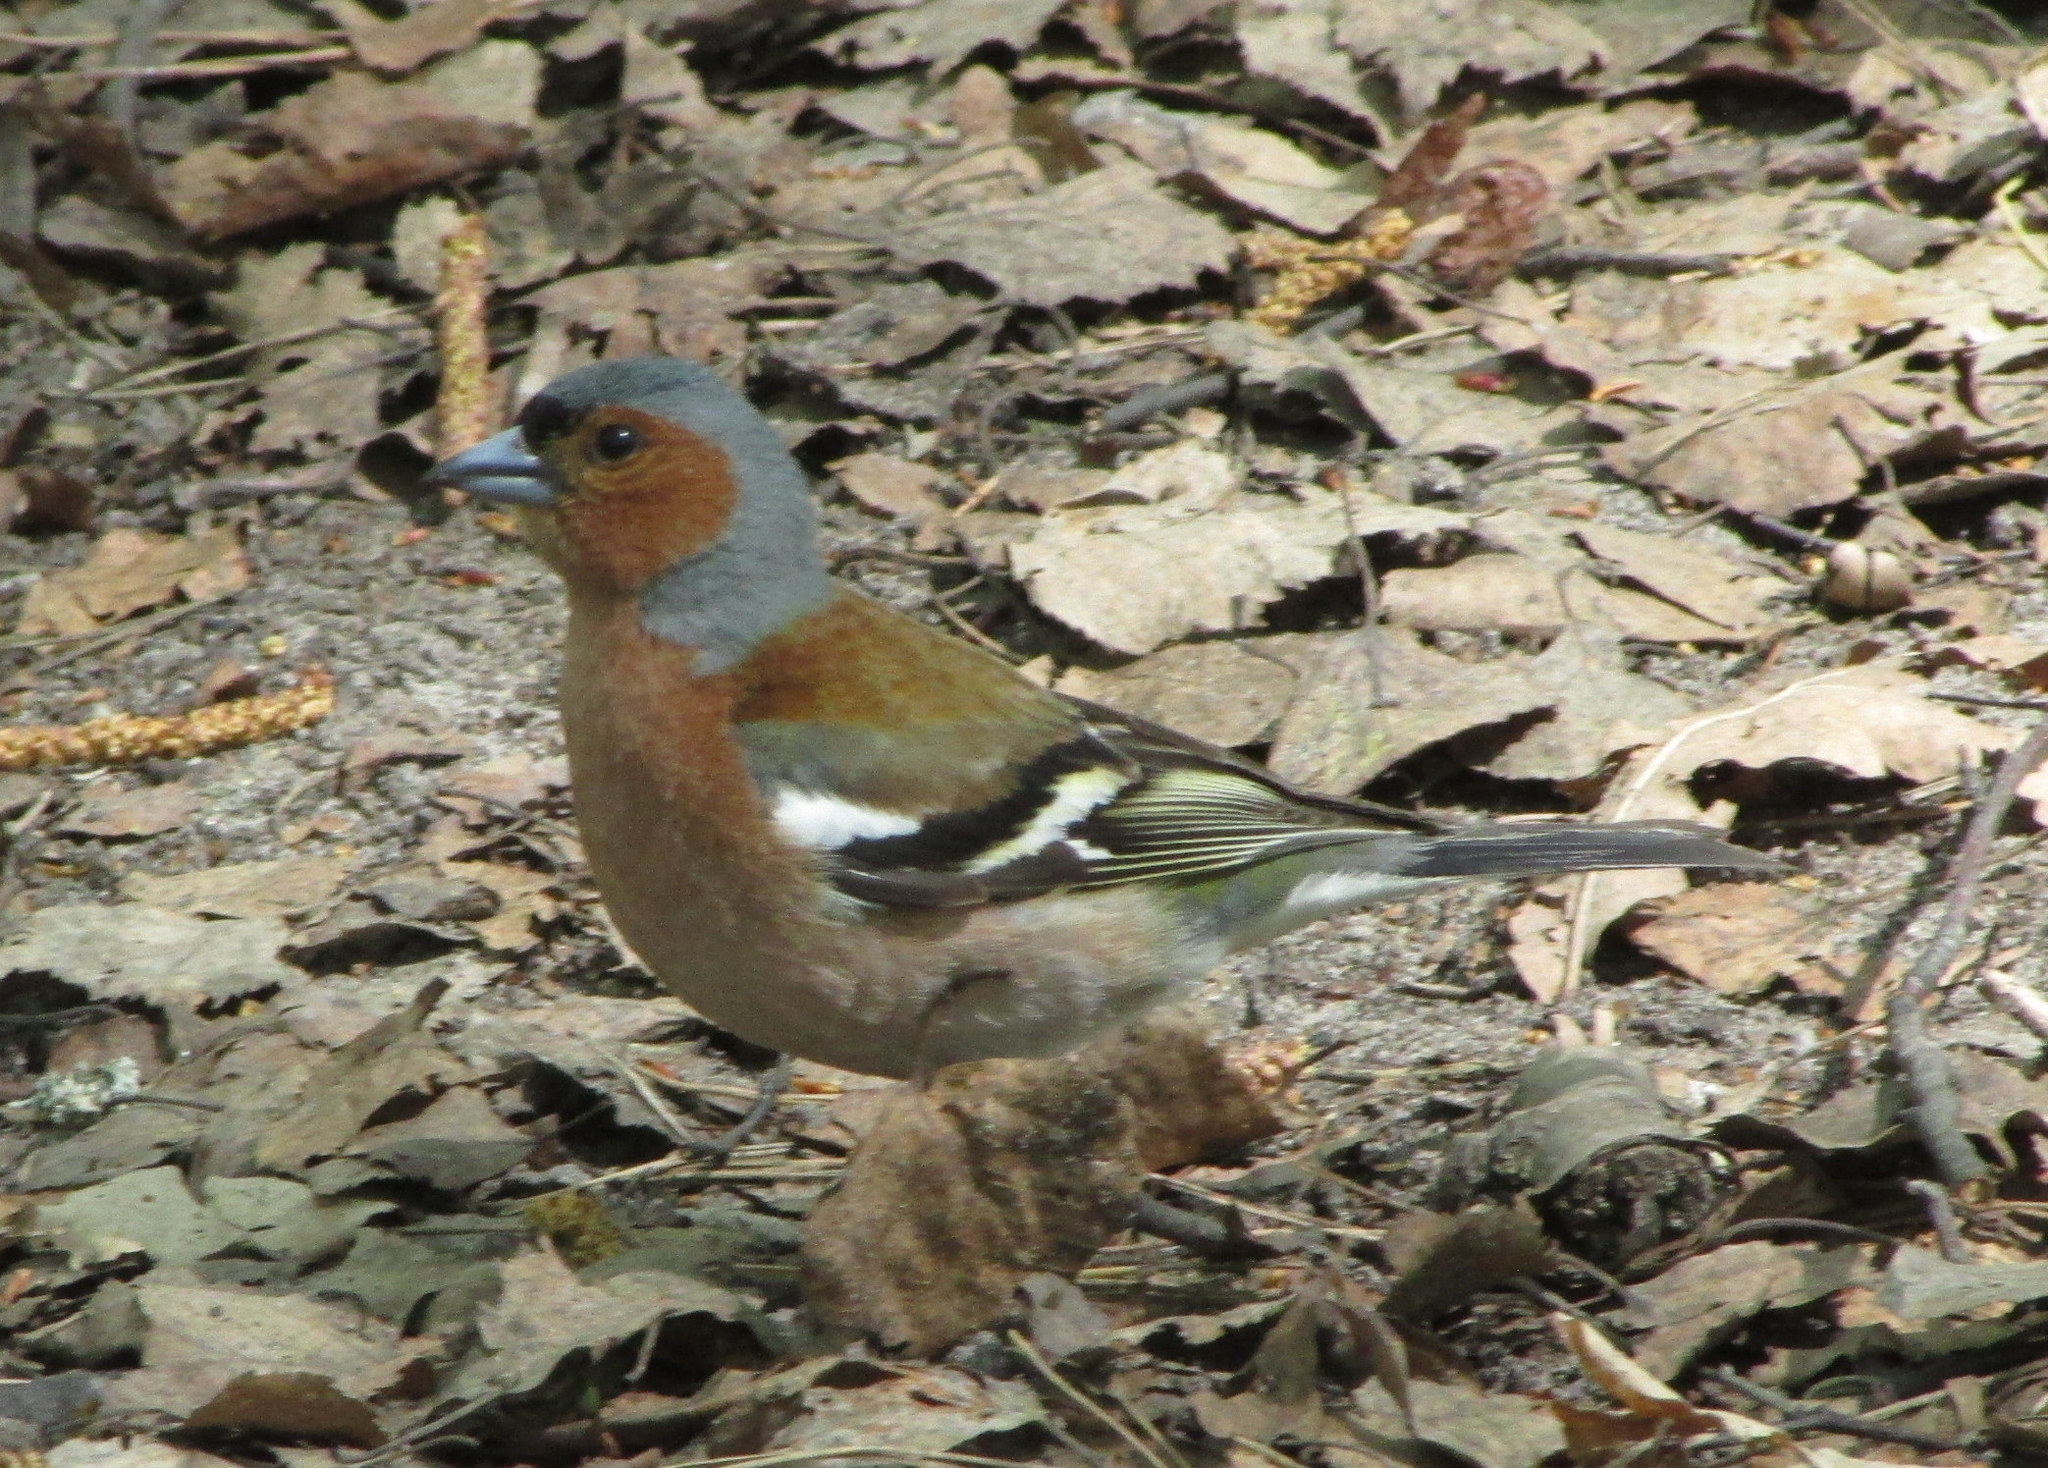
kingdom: Animalia
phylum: Chordata
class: Aves
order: Passeriformes
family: Fringillidae
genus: Fringilla
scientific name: Fringilla coelebs
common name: Common chaffinch
